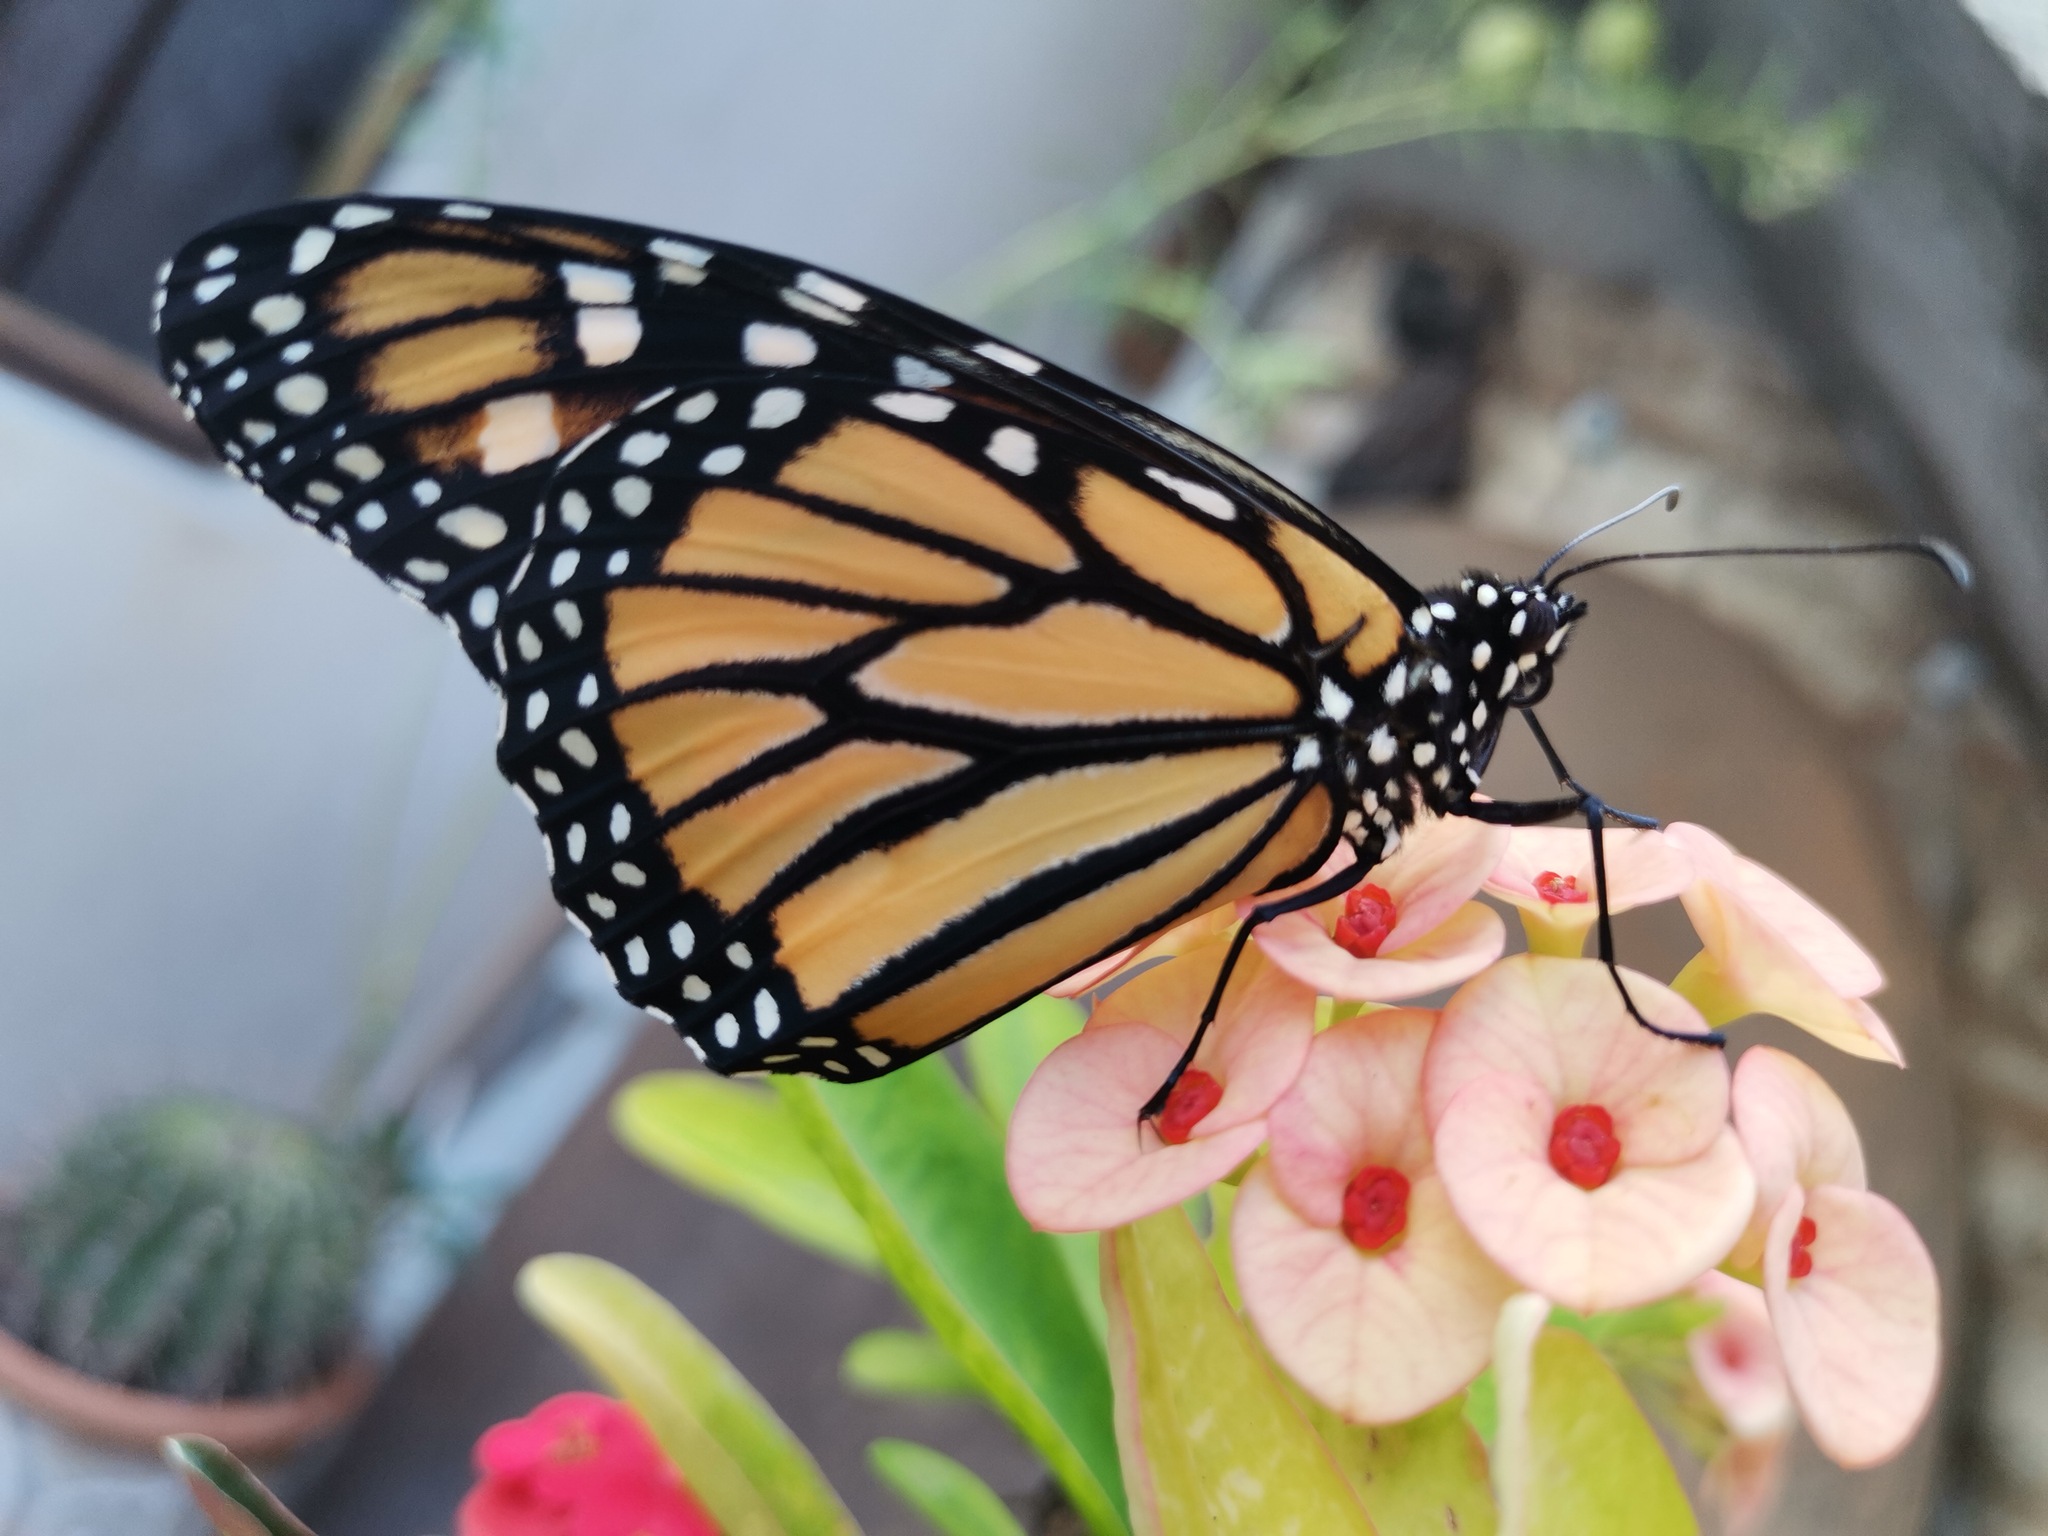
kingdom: Animalia
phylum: Arthropoda
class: Insecta
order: Lepidoptera
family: Nymphalidae
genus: Danaus
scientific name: Danaus plexippus
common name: Monarch
